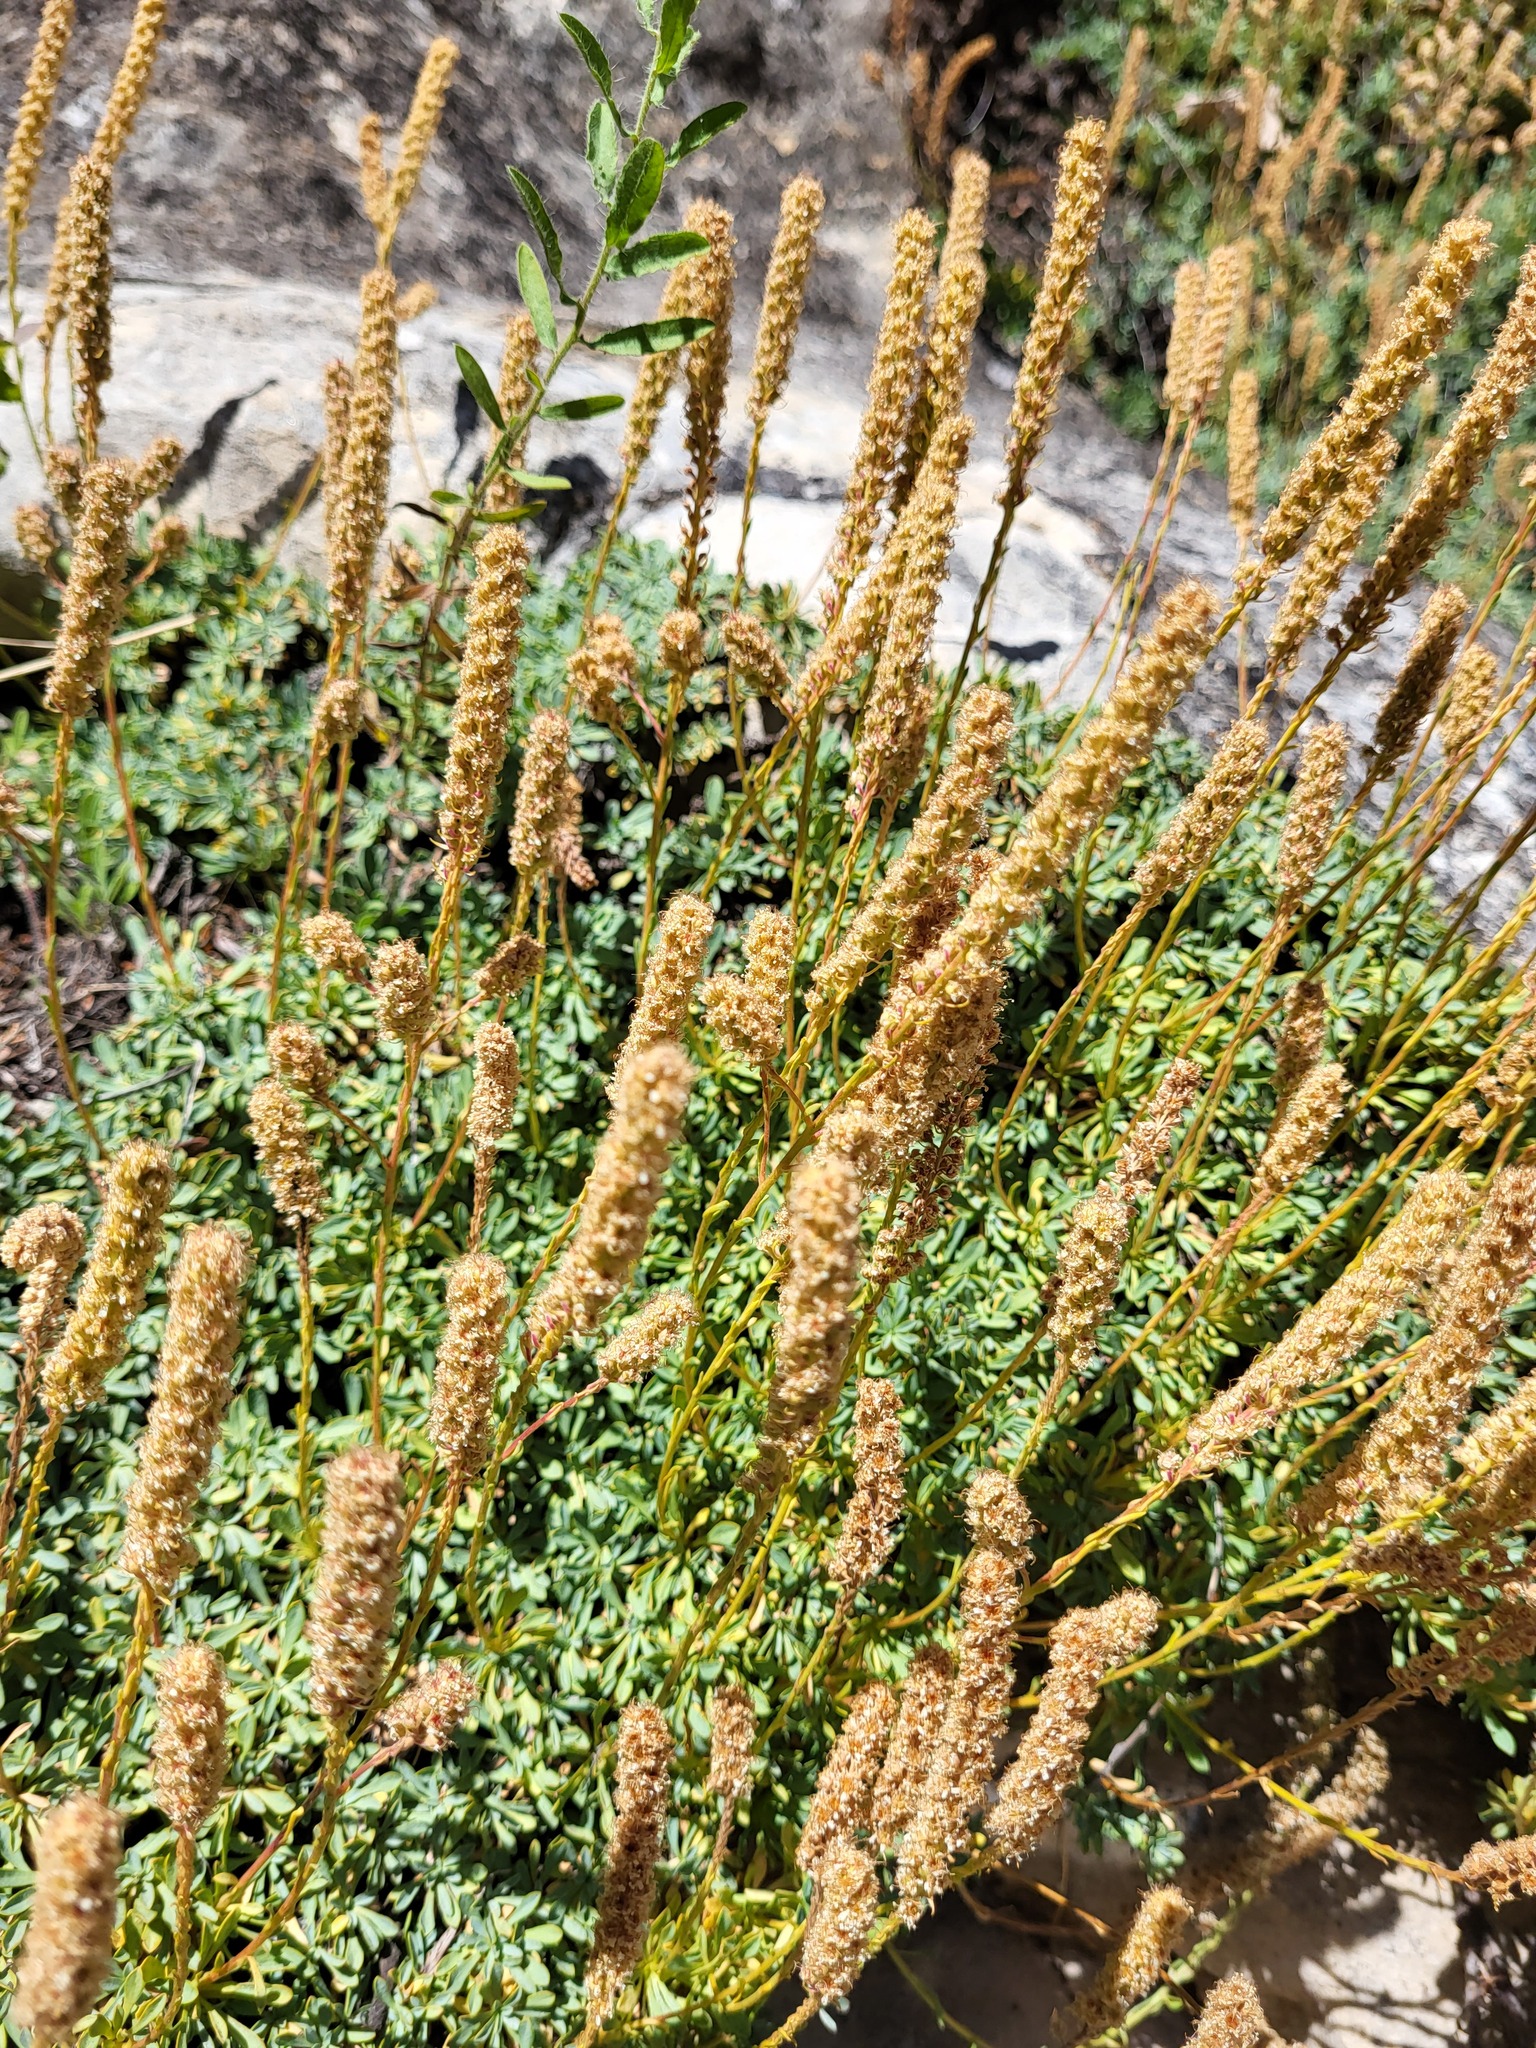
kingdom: Plantae
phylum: Tracheophyta
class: Magnoliopsida
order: Rosales
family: Rosaceae
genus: Petrophytum
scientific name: Petrophytum caespitosum
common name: Mat rockspirea
